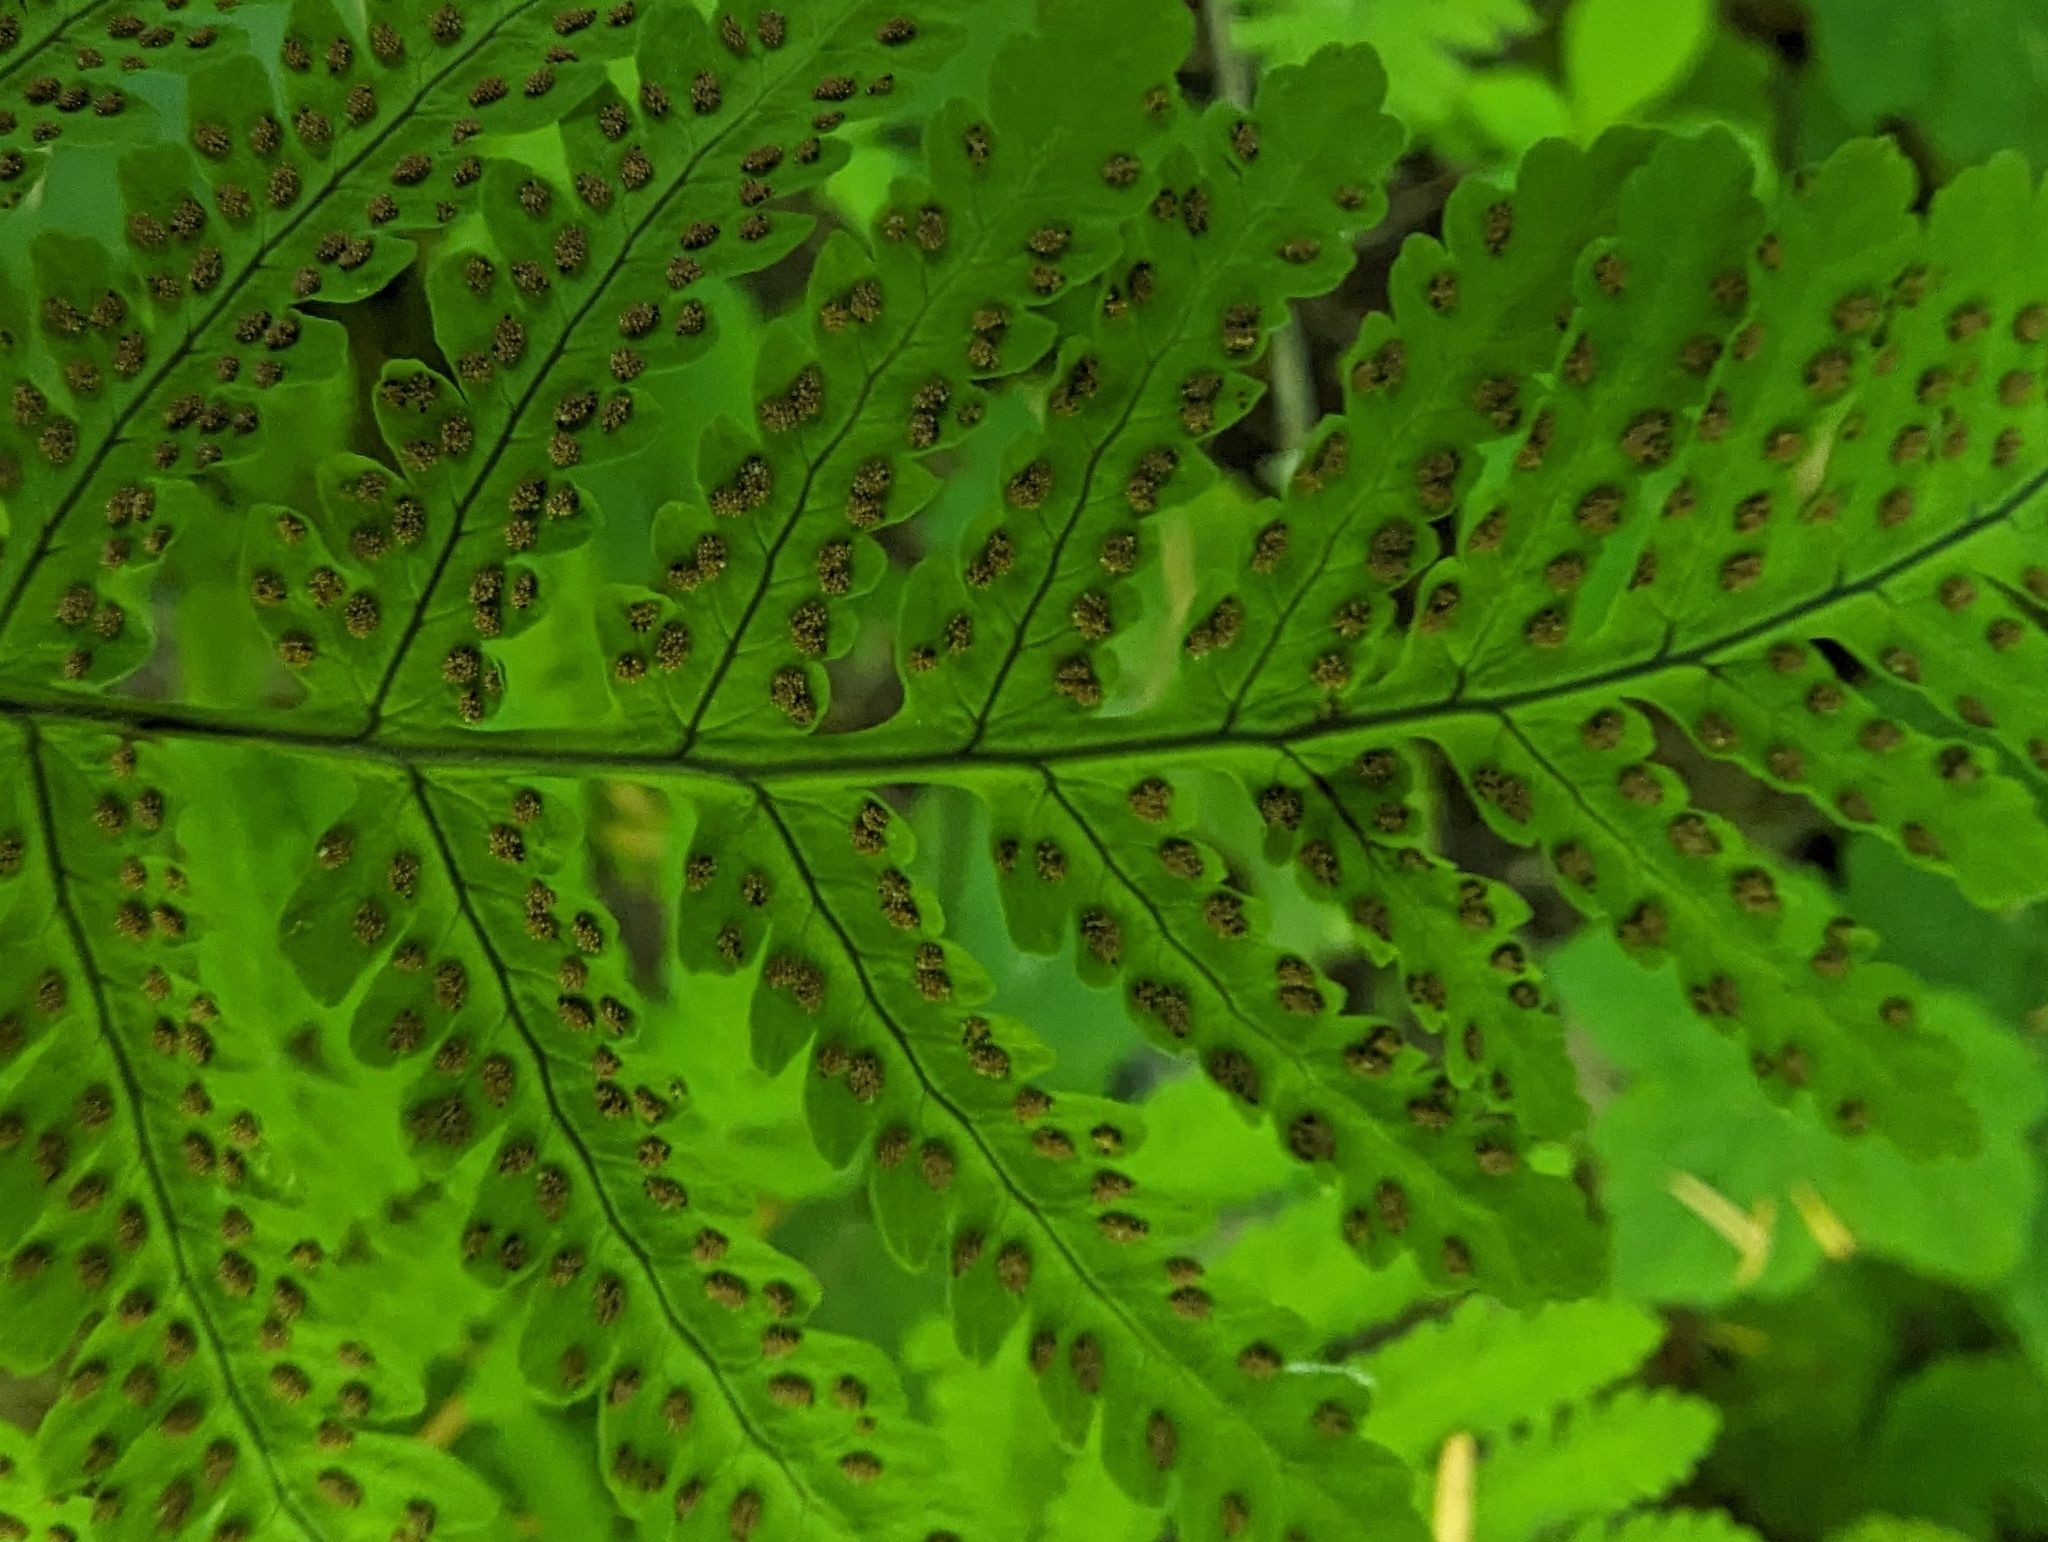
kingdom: Plantae
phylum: Tracheophyta
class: Polypodiopsida
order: Polypodiales
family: Cystopteridaceae
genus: Gymnocarpium
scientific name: Gymnocarpium disjunctum
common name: Western oak fern
